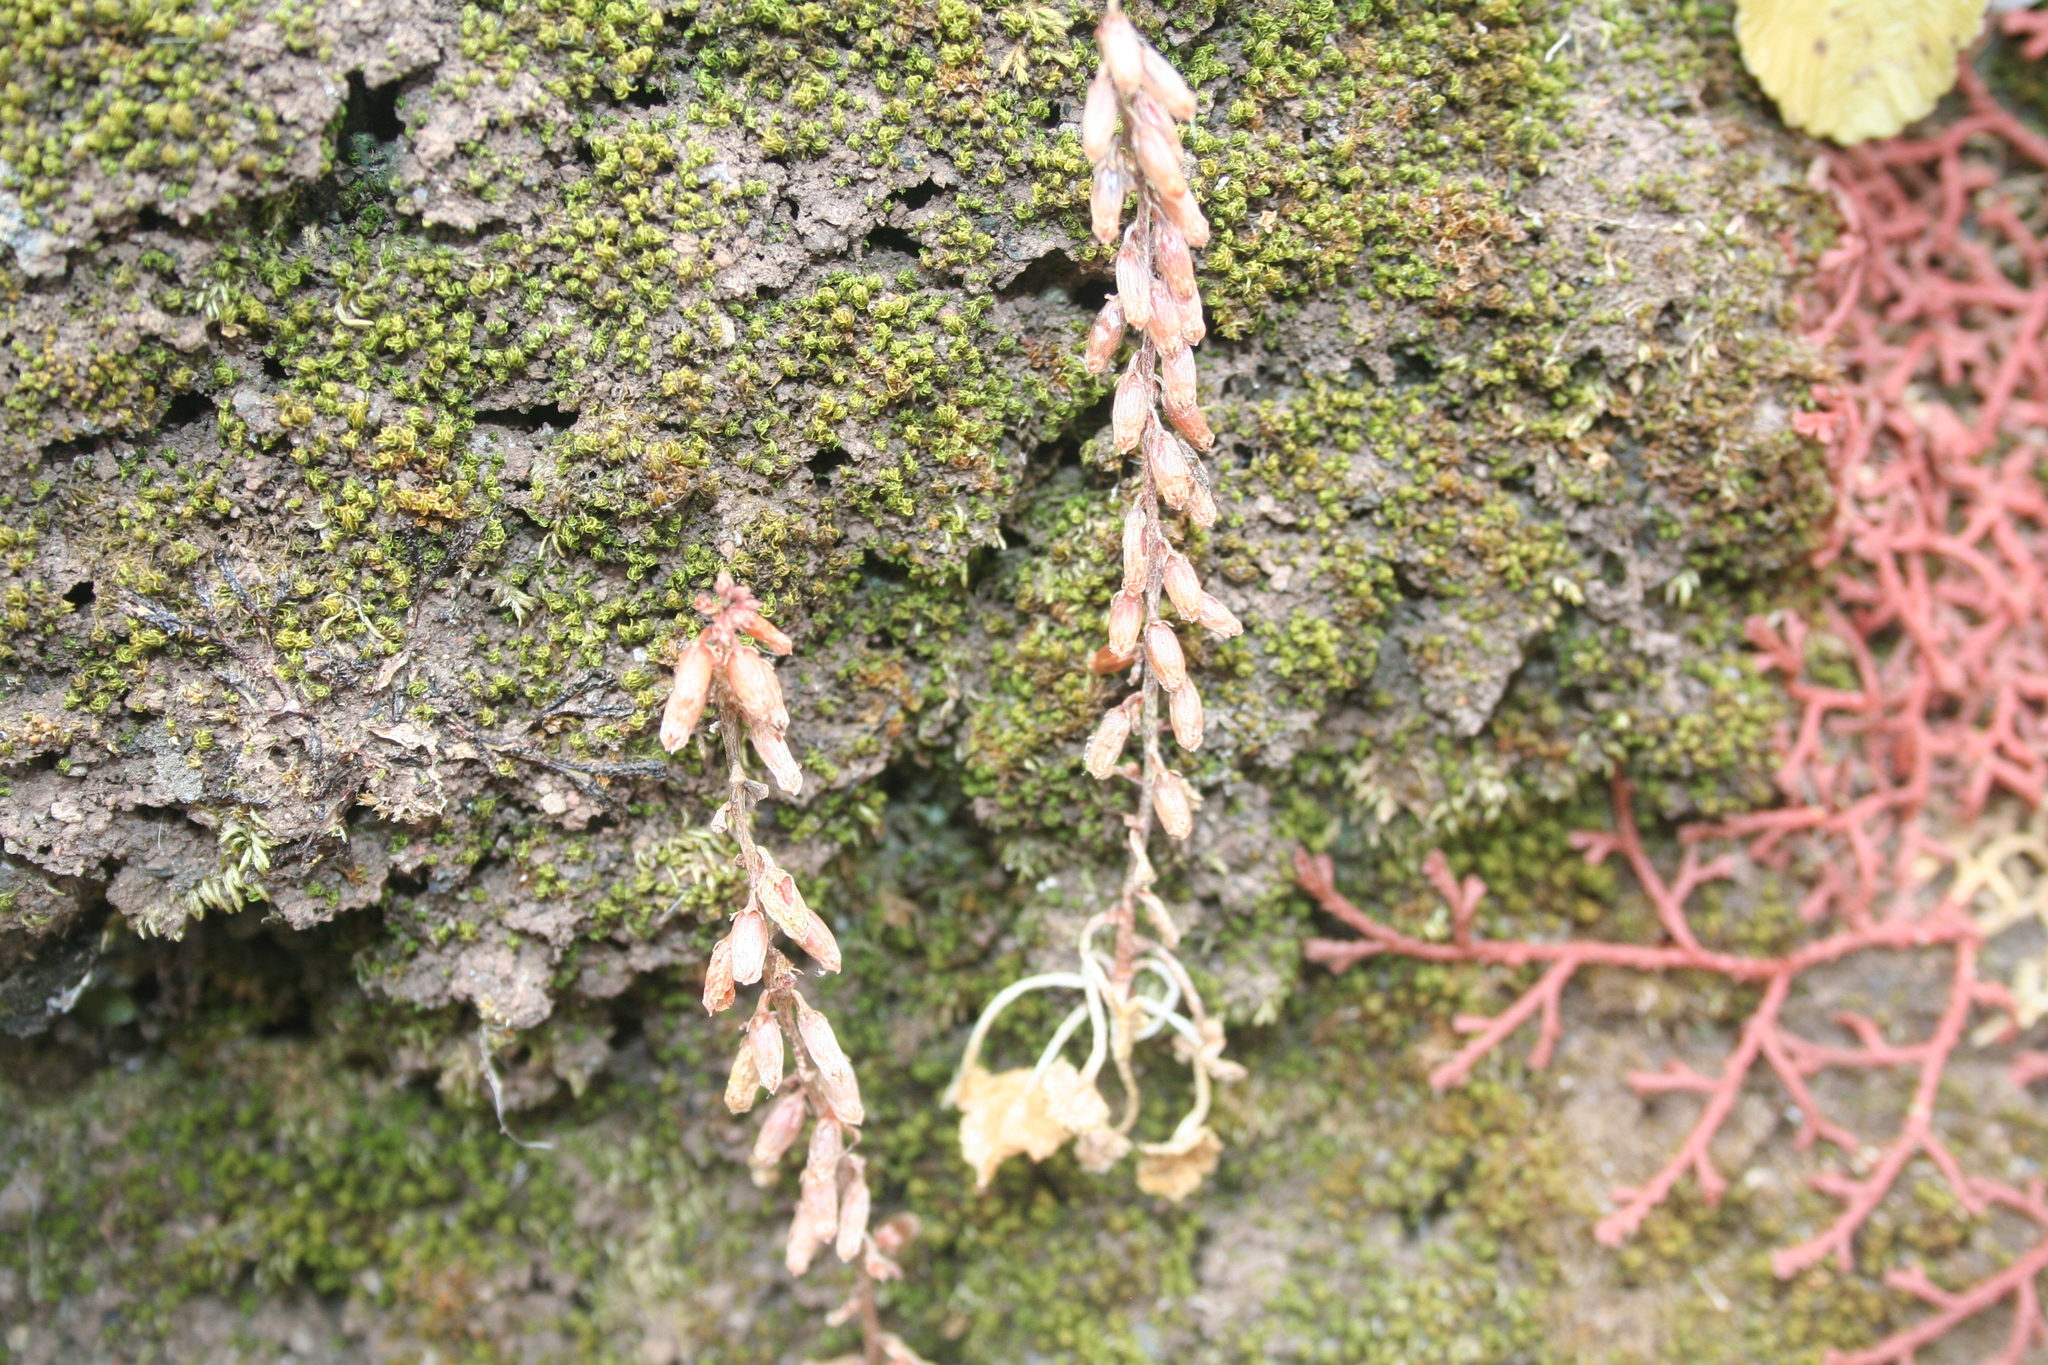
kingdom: Plantae
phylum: Tracheophyta
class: Magnoliopsida
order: Saxifragales
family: Crassulaceae
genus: Umbilicus
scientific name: Umbilicus rupestris
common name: Navelwort
